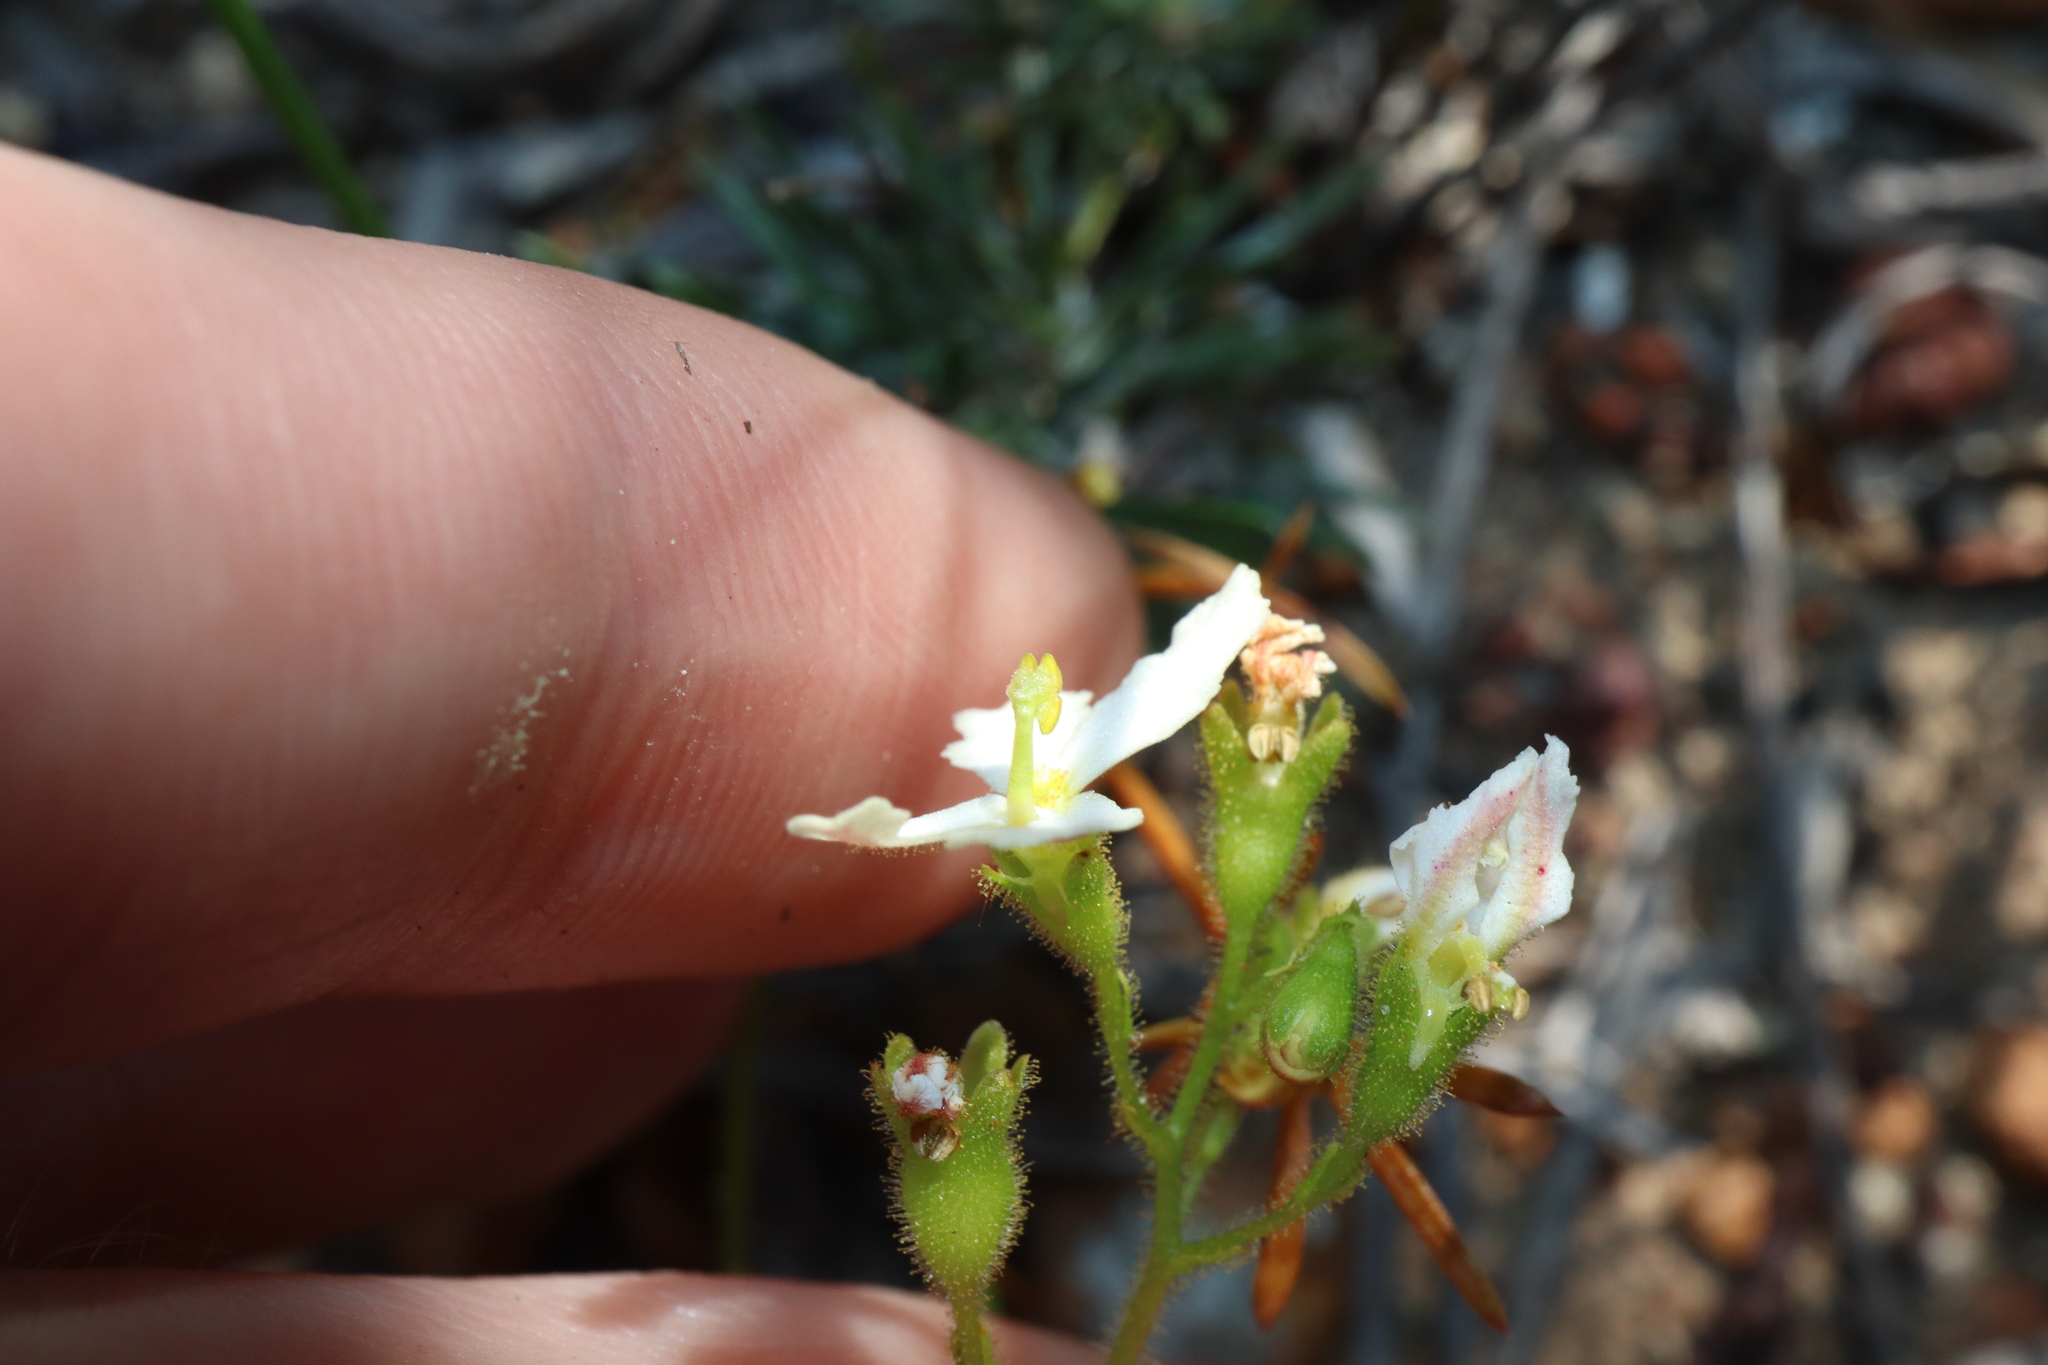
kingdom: Plantae
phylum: Tracheophyta
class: Magnoliopsida
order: Asterales
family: Stylidiaceae
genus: Stylidium
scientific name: Stylidium spinulosum
